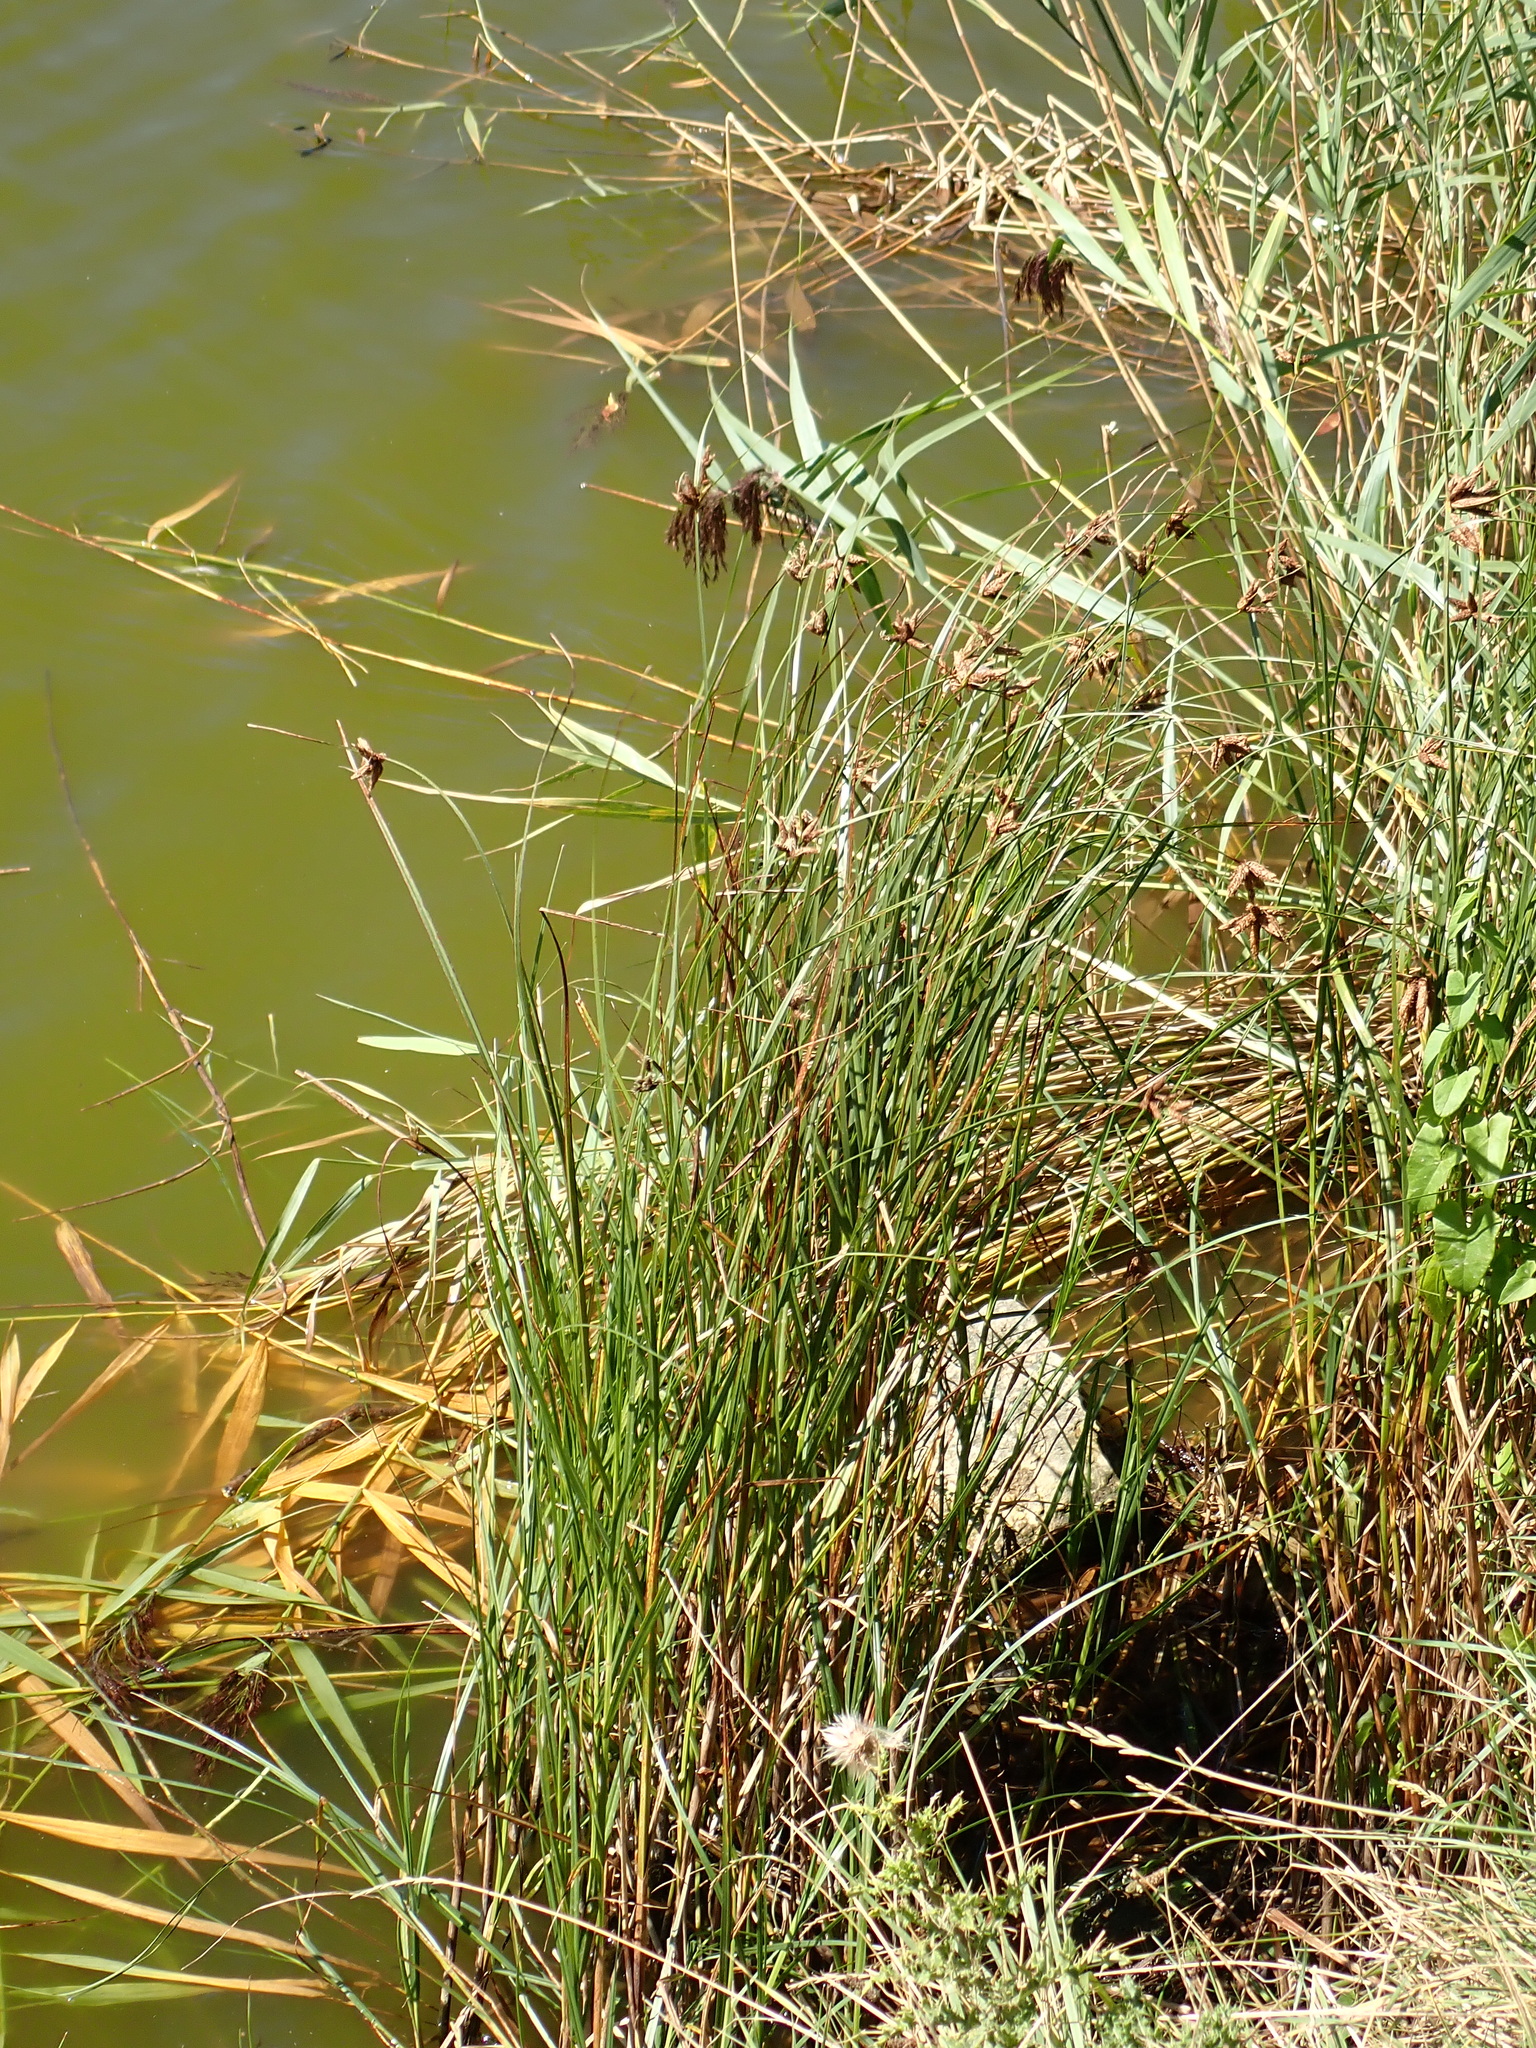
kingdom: Plantae
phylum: Tracheophyta
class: Liliopsida
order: Poales
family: Cyperaceae
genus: Bolboschoenus
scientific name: Bolboschoenus maritimus
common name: Sea club-rush
